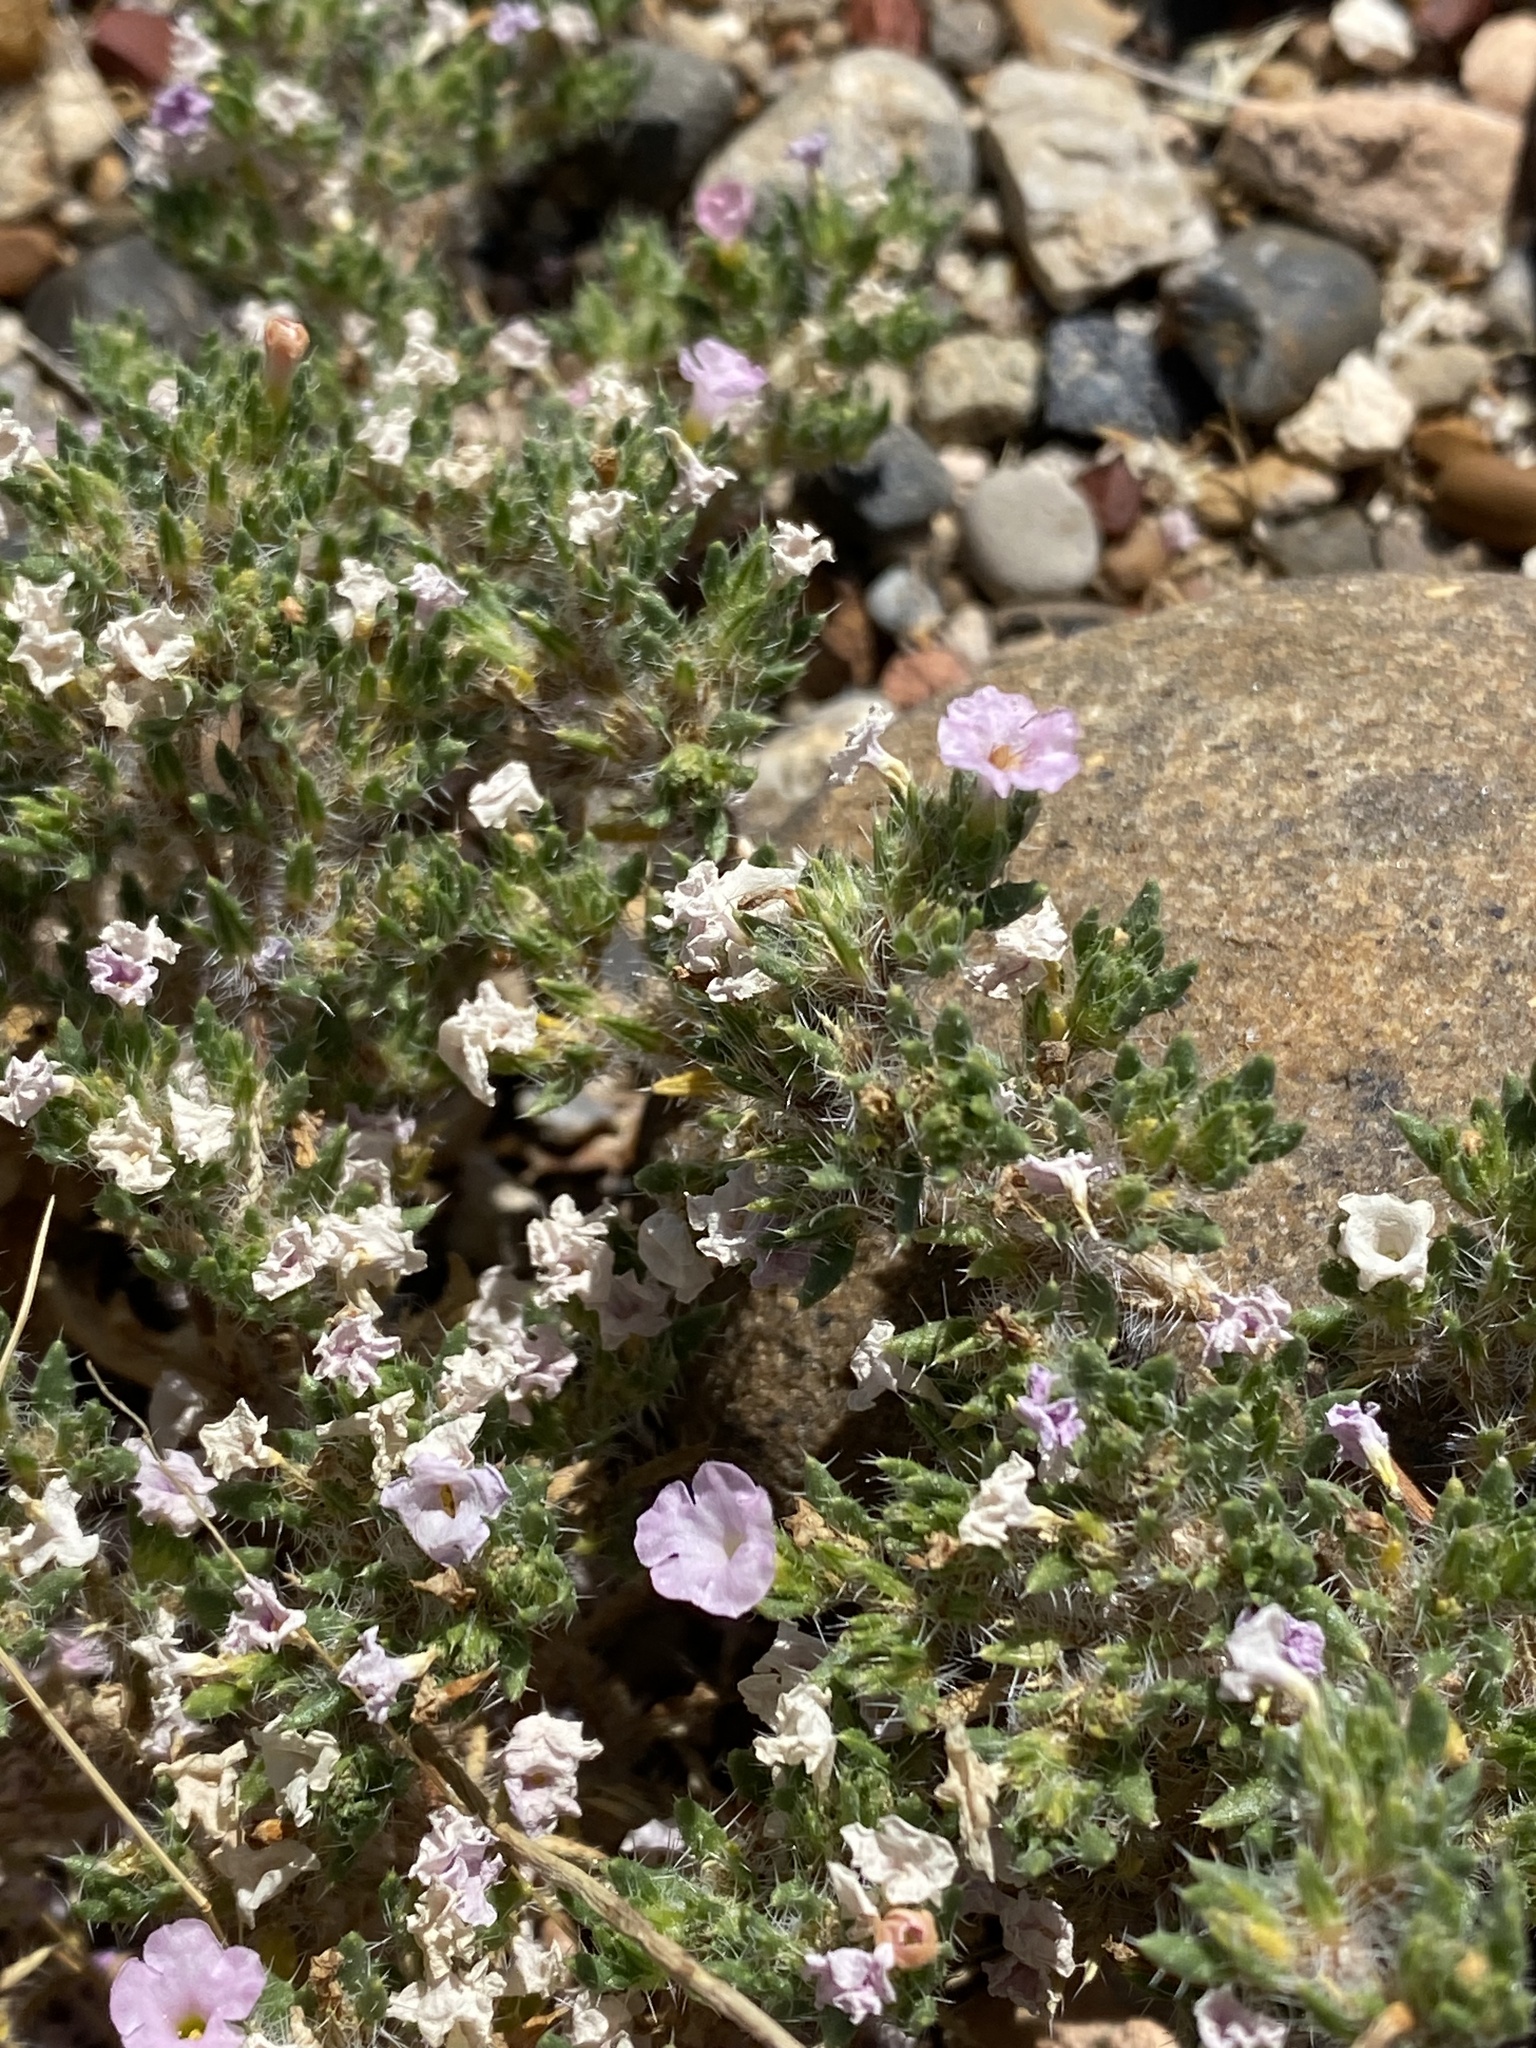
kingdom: Plantae
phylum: Tracheophyta
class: Magnoliopsida
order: Boraginales
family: Ehretiaceae
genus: Tiquilia
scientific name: Tiquilia latior
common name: Matted tiquilia
